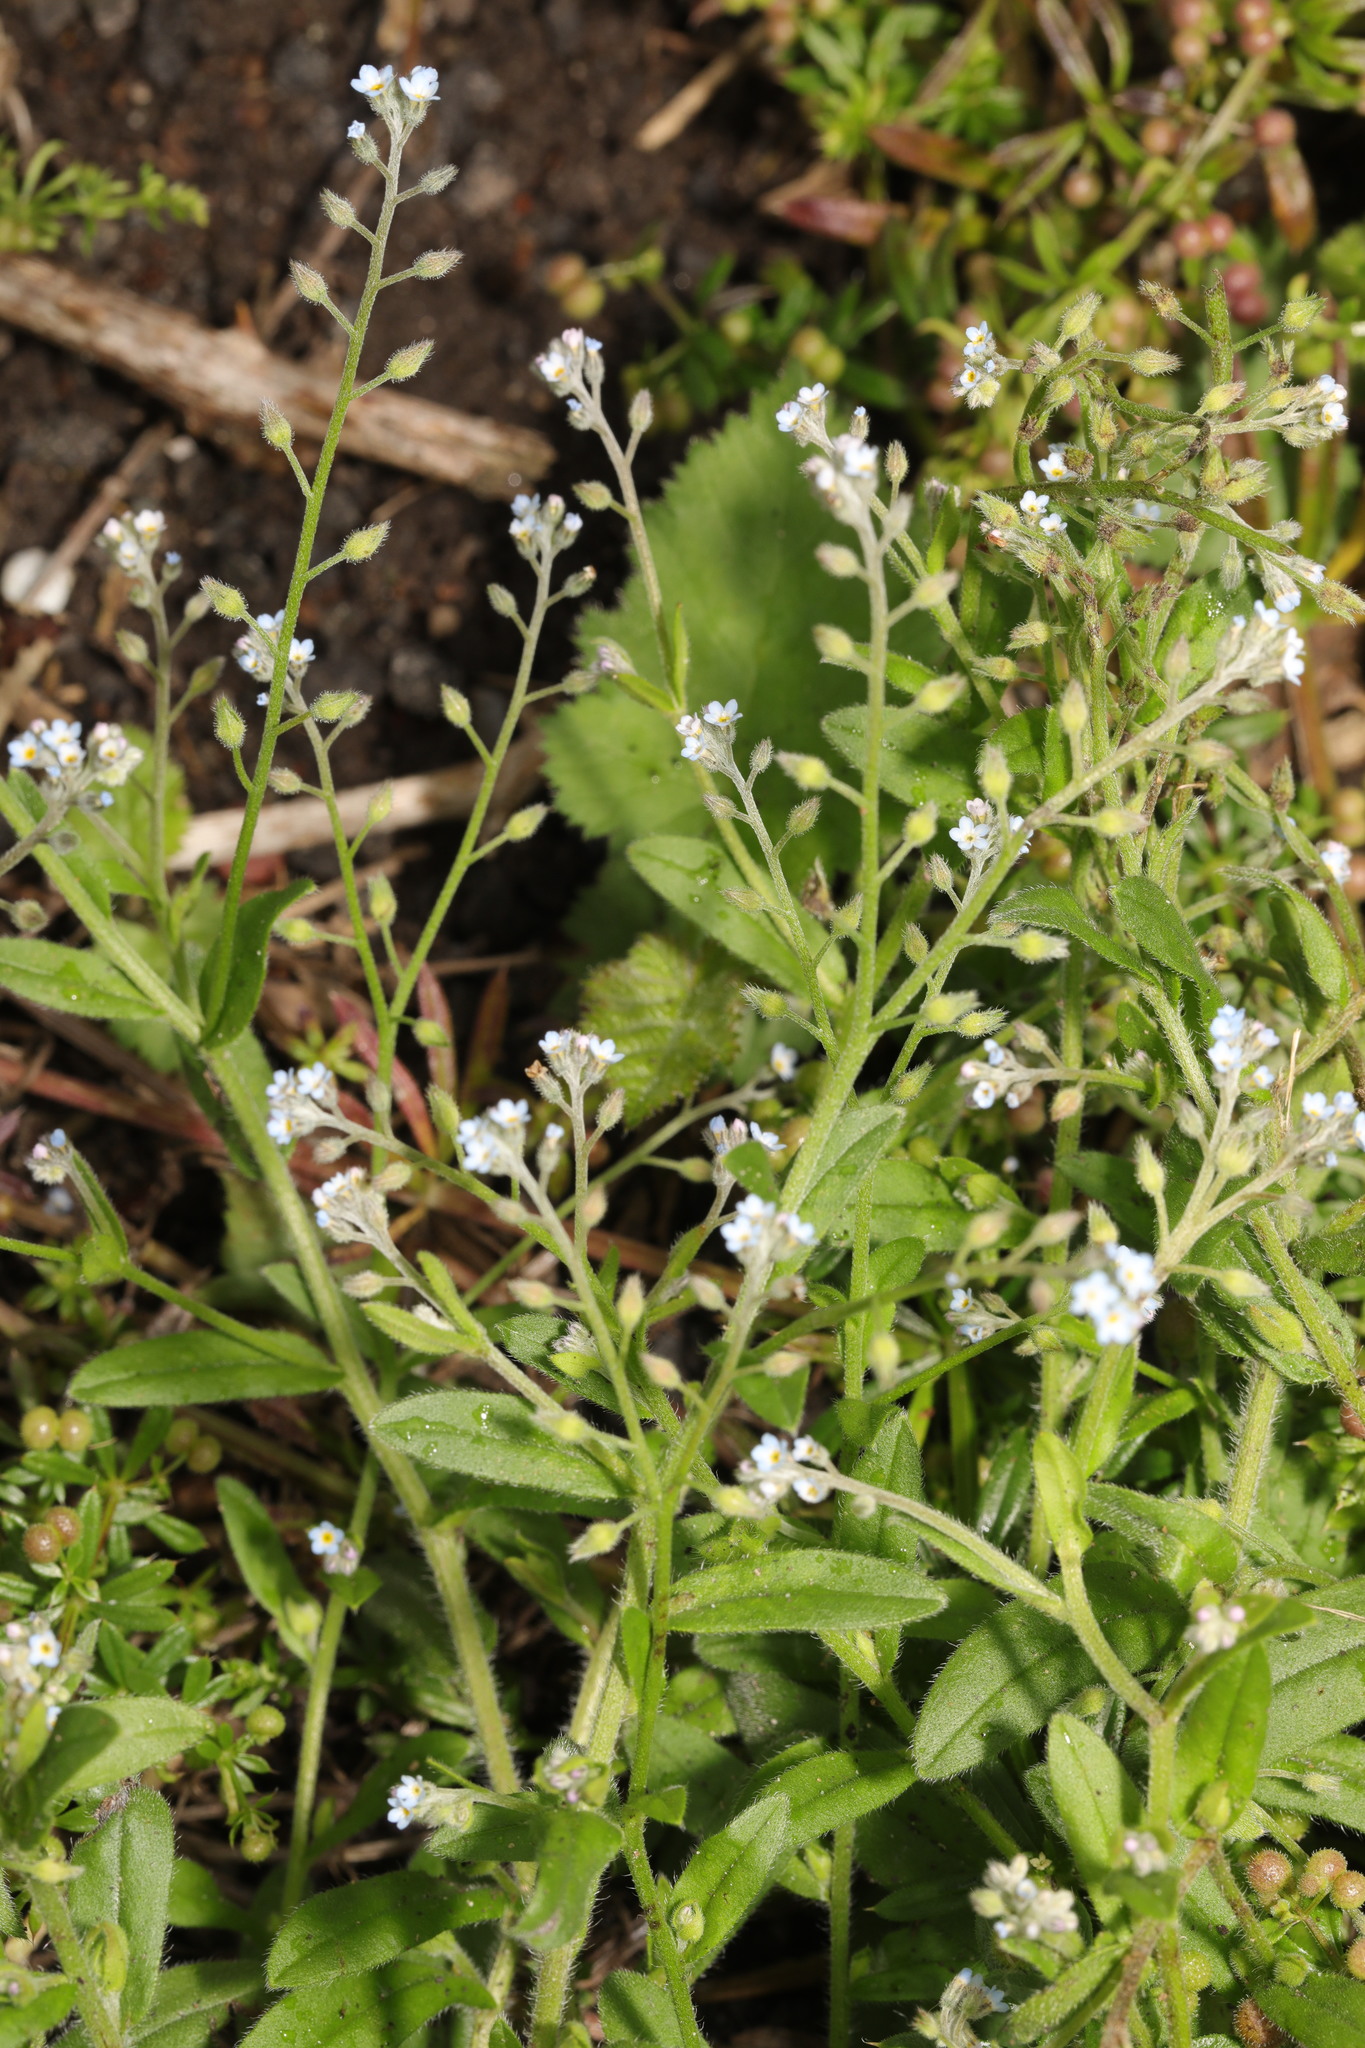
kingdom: Plantae
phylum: Tracheophyta
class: Magnoliopsida
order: Boraginales
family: Boraginaceae
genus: Myosotis
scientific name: Myosotis arvensis
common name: Field forget-me-not
